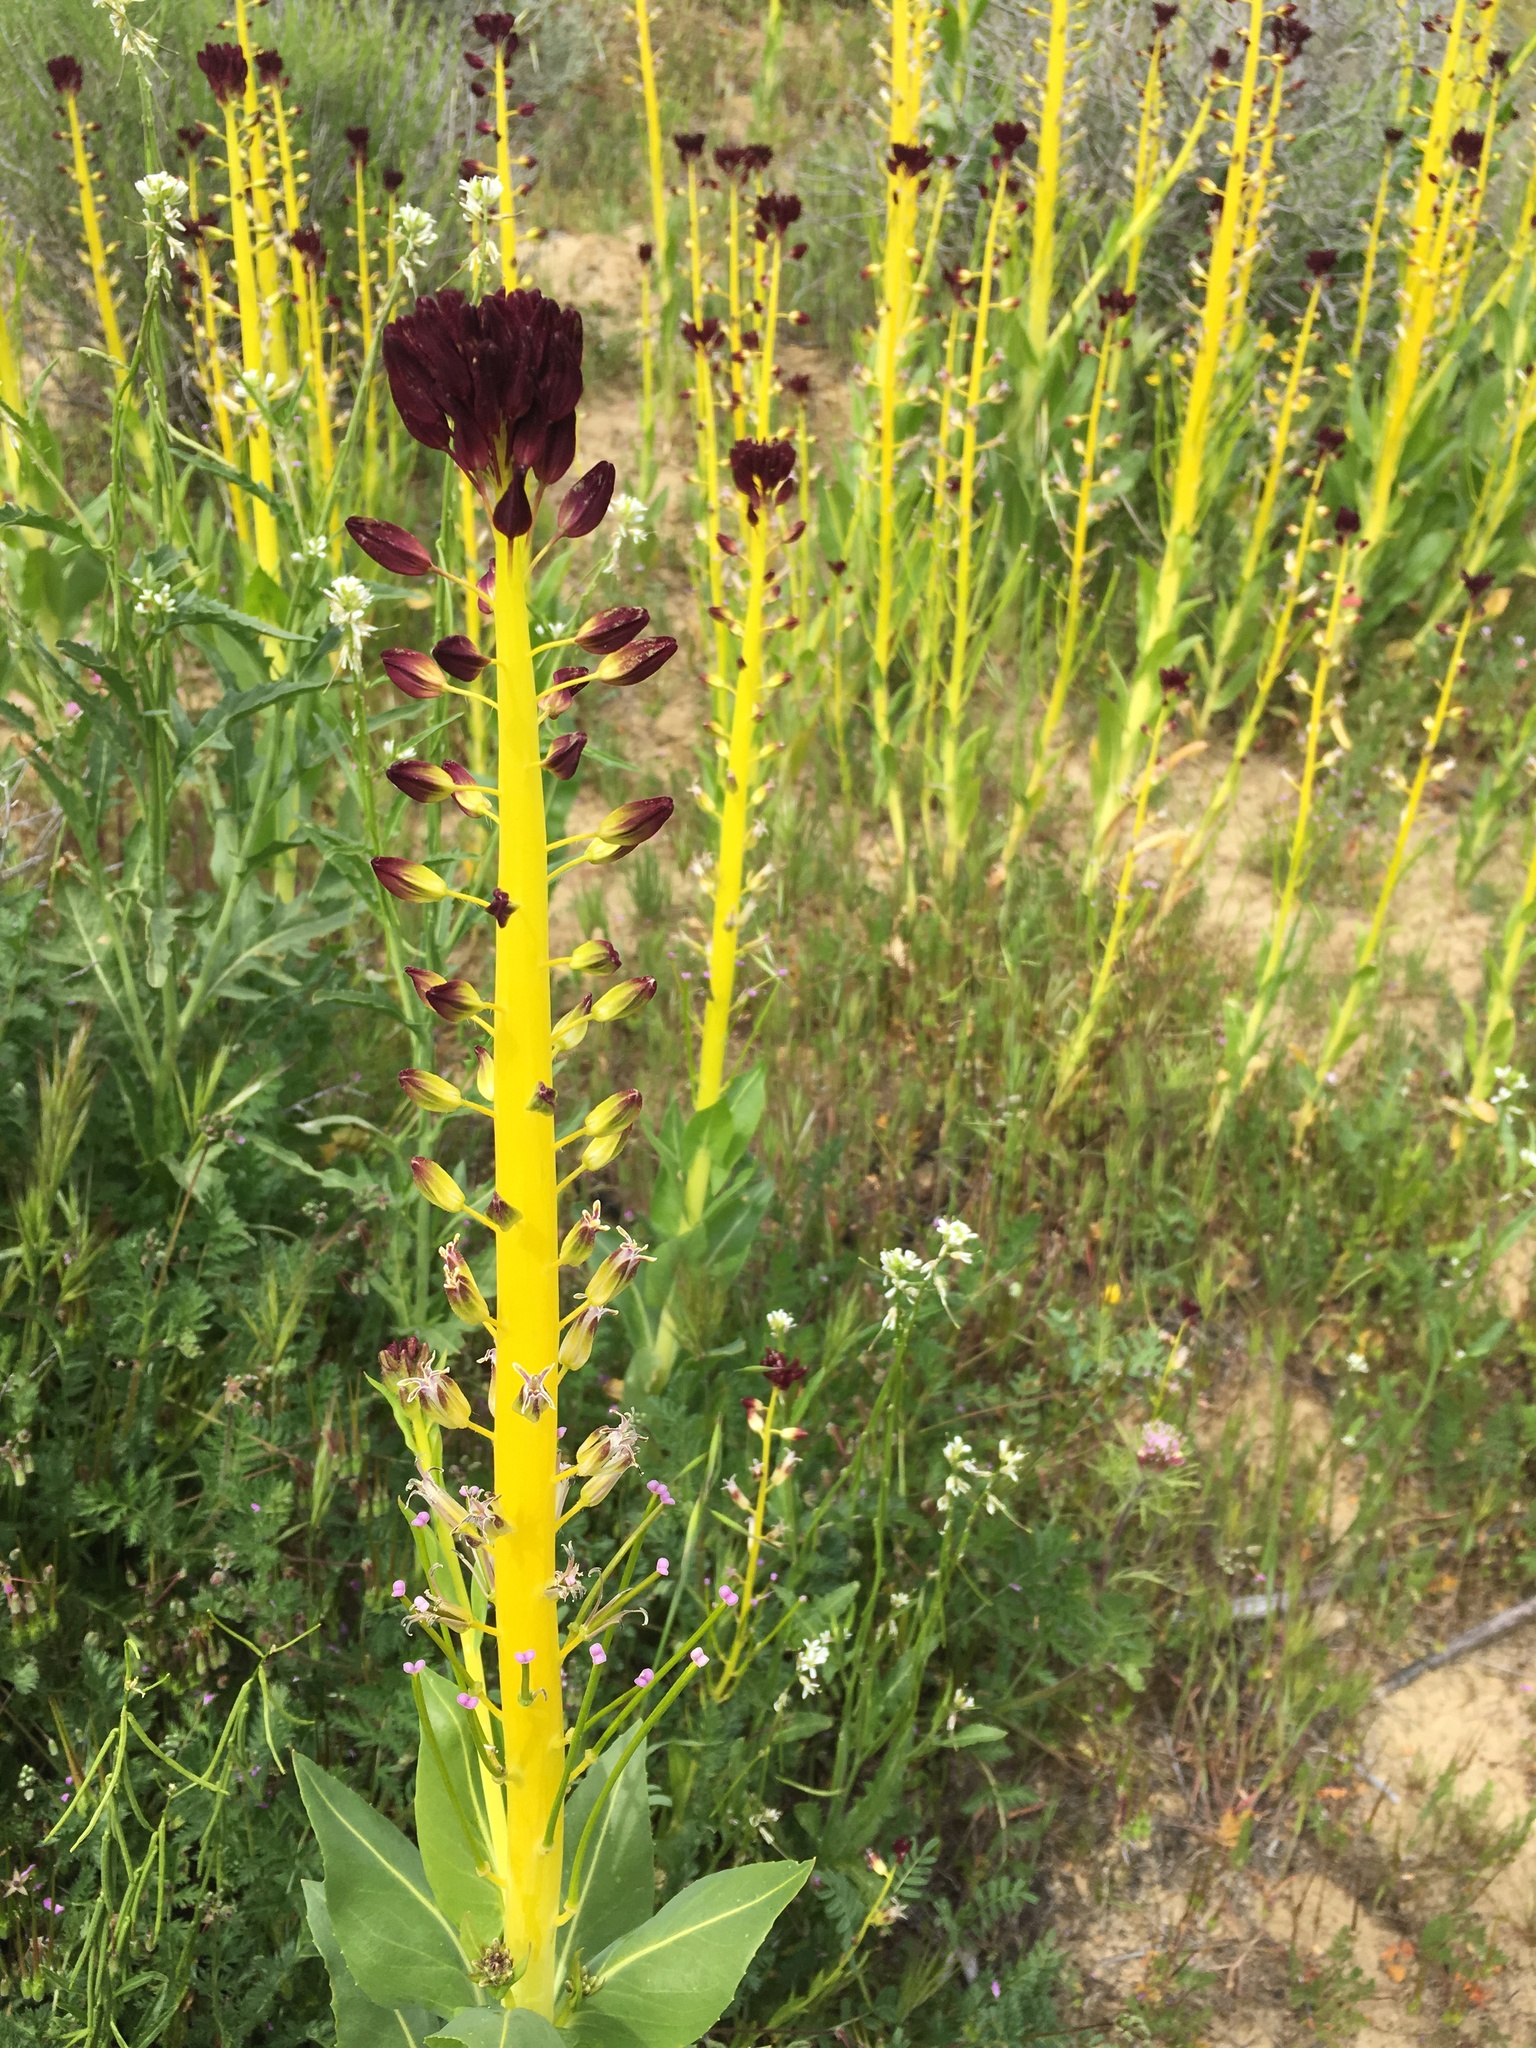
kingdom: Plantae
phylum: Tracheophyta
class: Magnoliopsida
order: Brassicales
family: Brassicaceae
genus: Streptanthus
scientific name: Streptanthus inflatus
